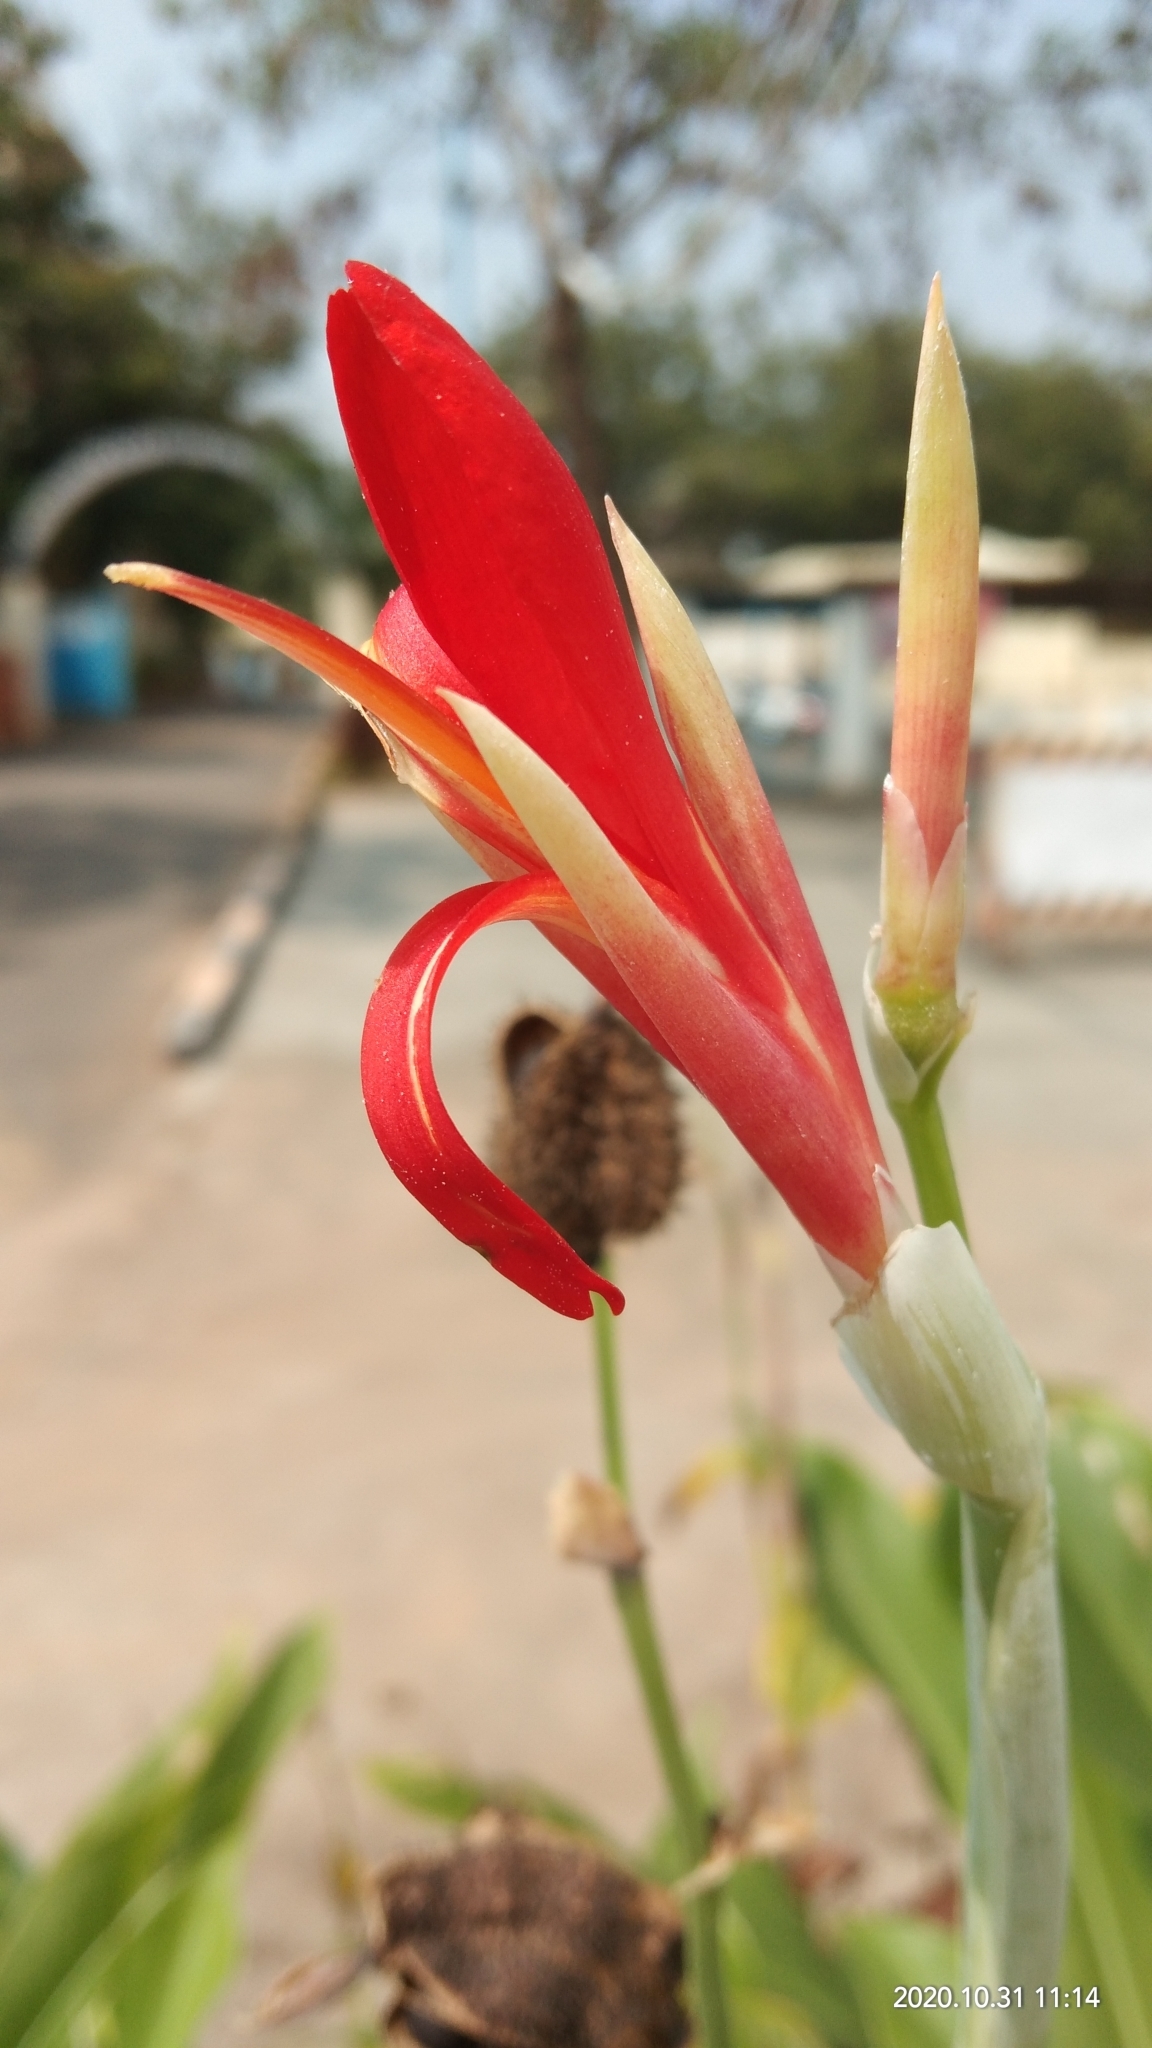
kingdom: Plantae
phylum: Tracheophyta
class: Liliopsida
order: Zingiberales
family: Cannaceae
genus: Canna
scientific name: Canna indica
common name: Indian shot
